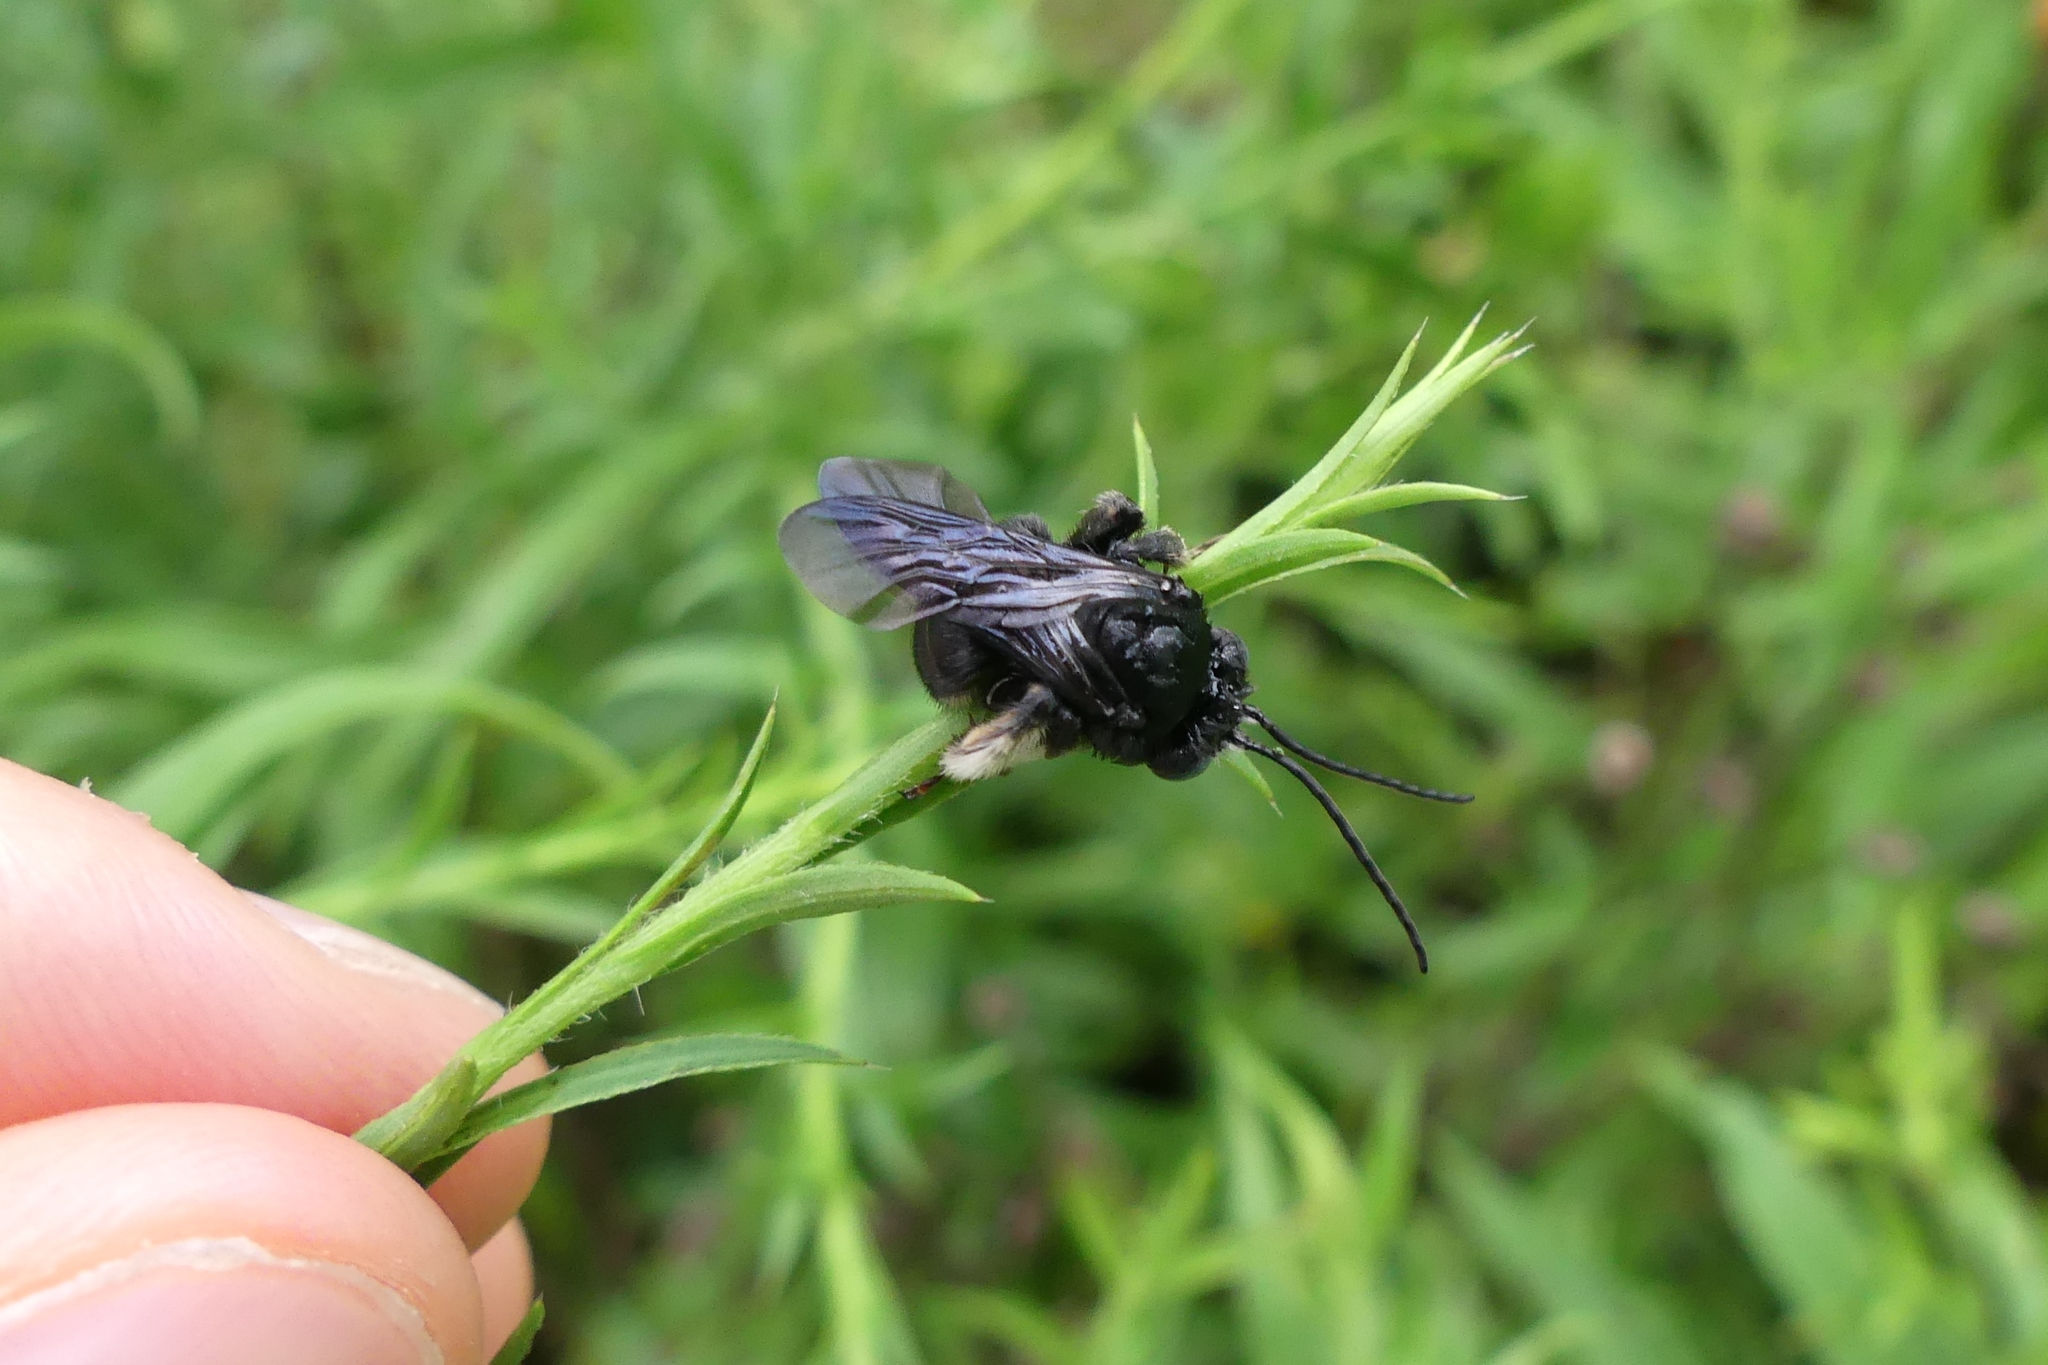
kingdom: Animalia
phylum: Arthropoda
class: Insecta
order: Hymenoptera
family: Apidae
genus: Melissodes
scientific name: Melissodes bimaculatus
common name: Two-spotted long-horned bee
